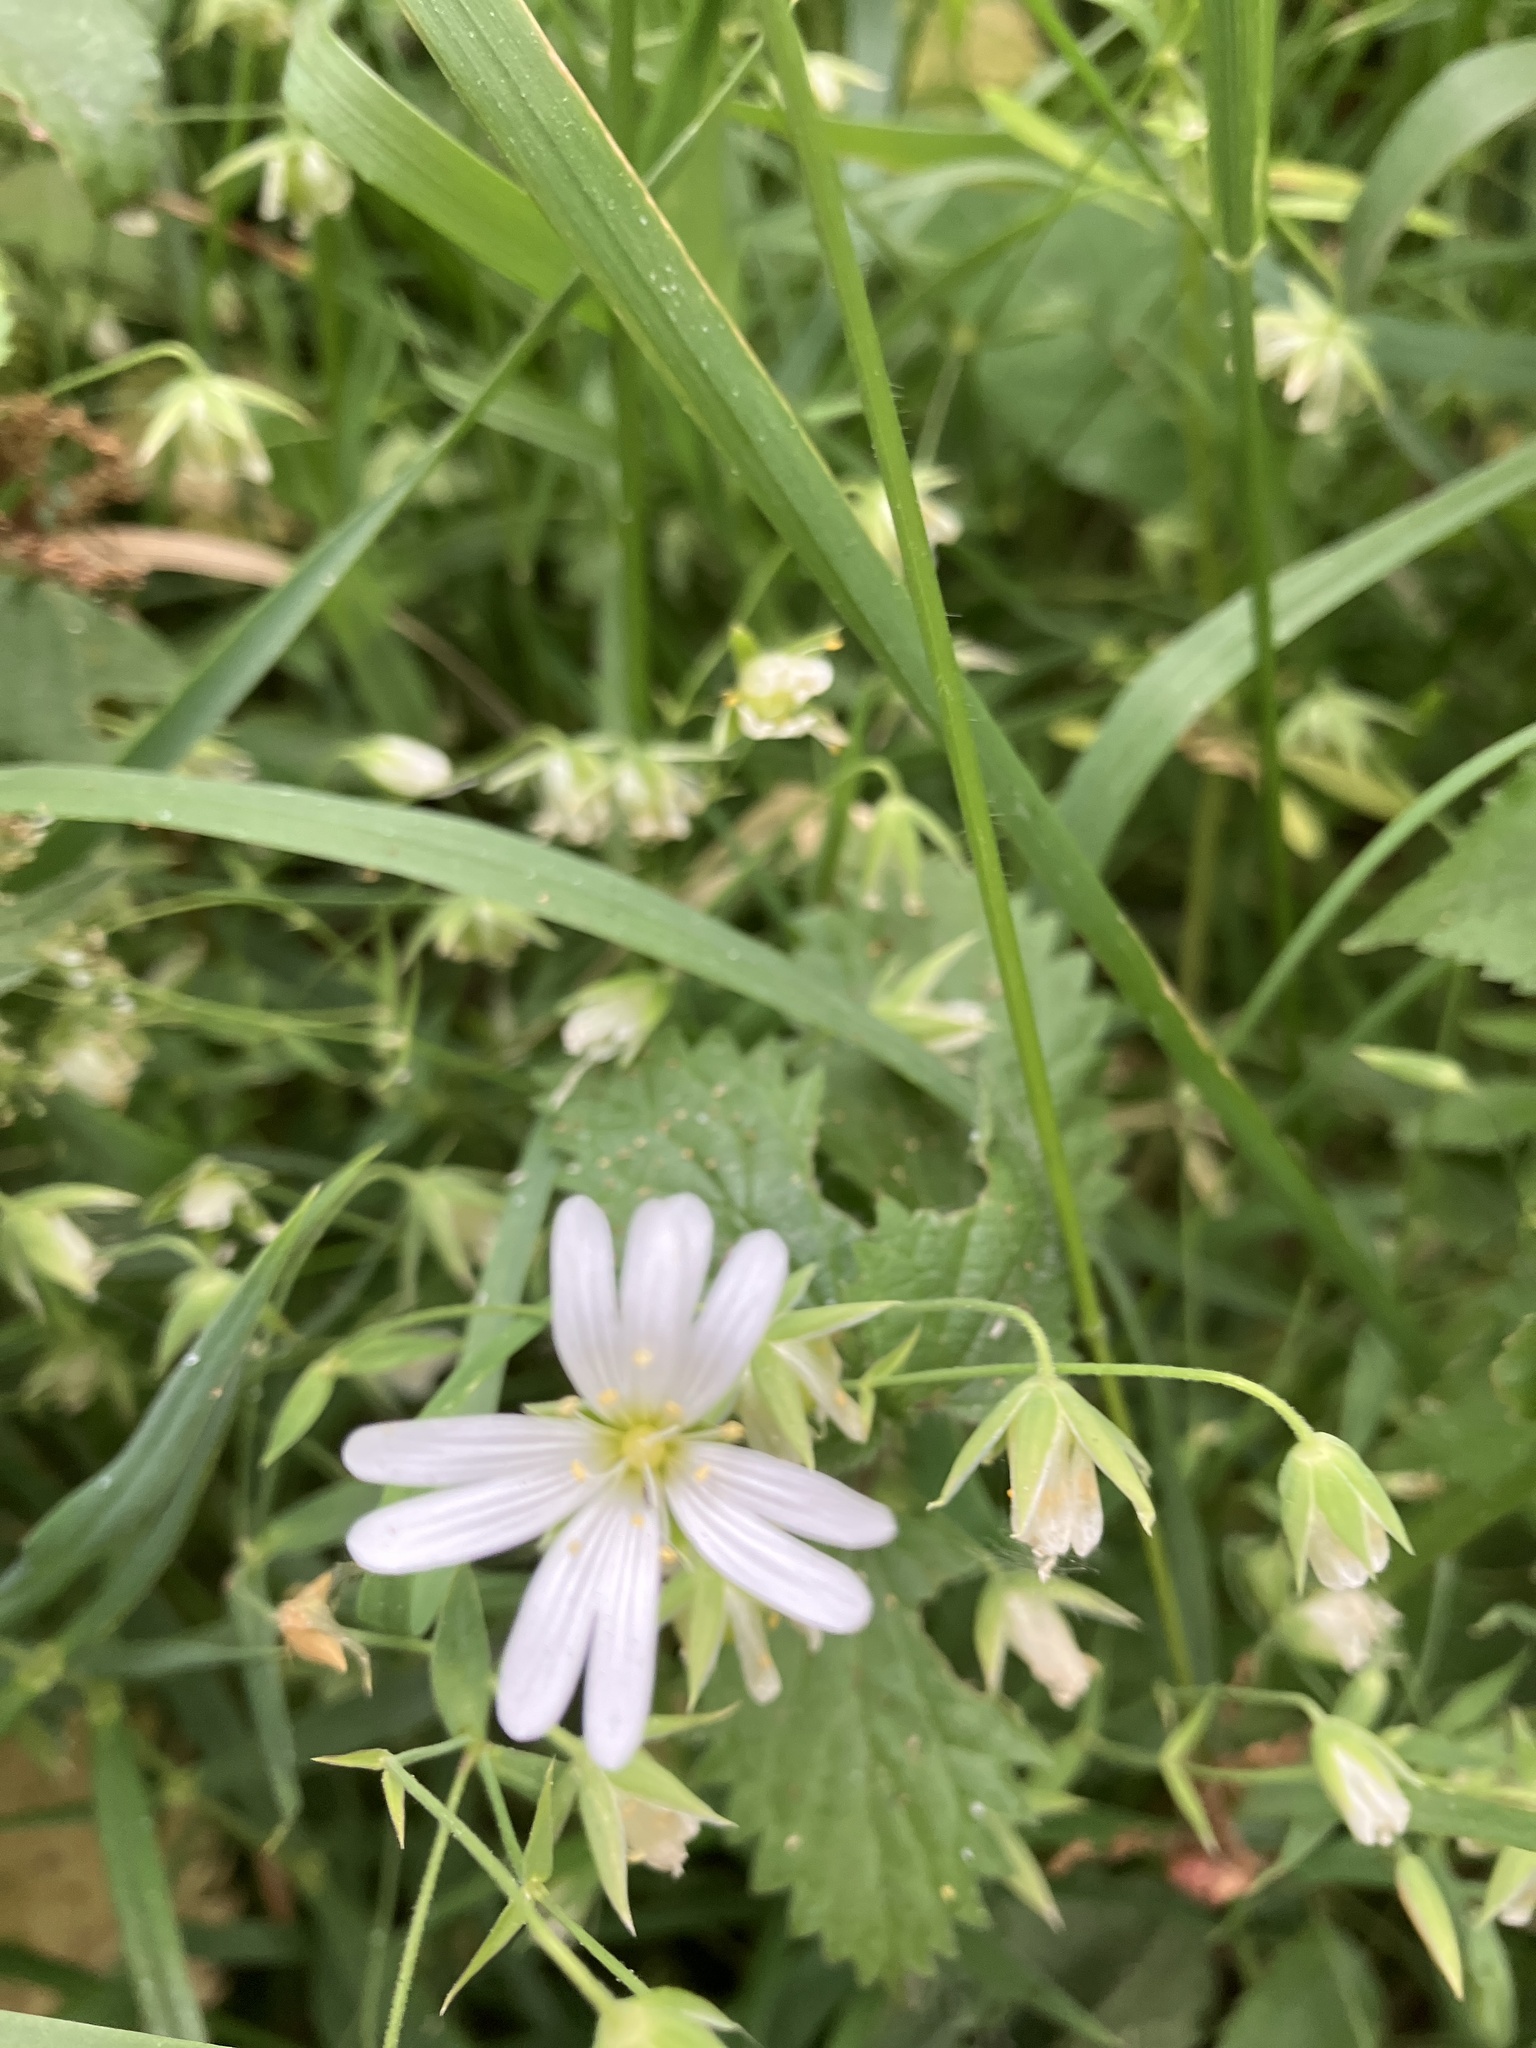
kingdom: Plantae
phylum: Tracheophyta
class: Magnoliopsida
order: Caryophyllales
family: Caryophyllaceae
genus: Rabelera
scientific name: Rabelera holostea
